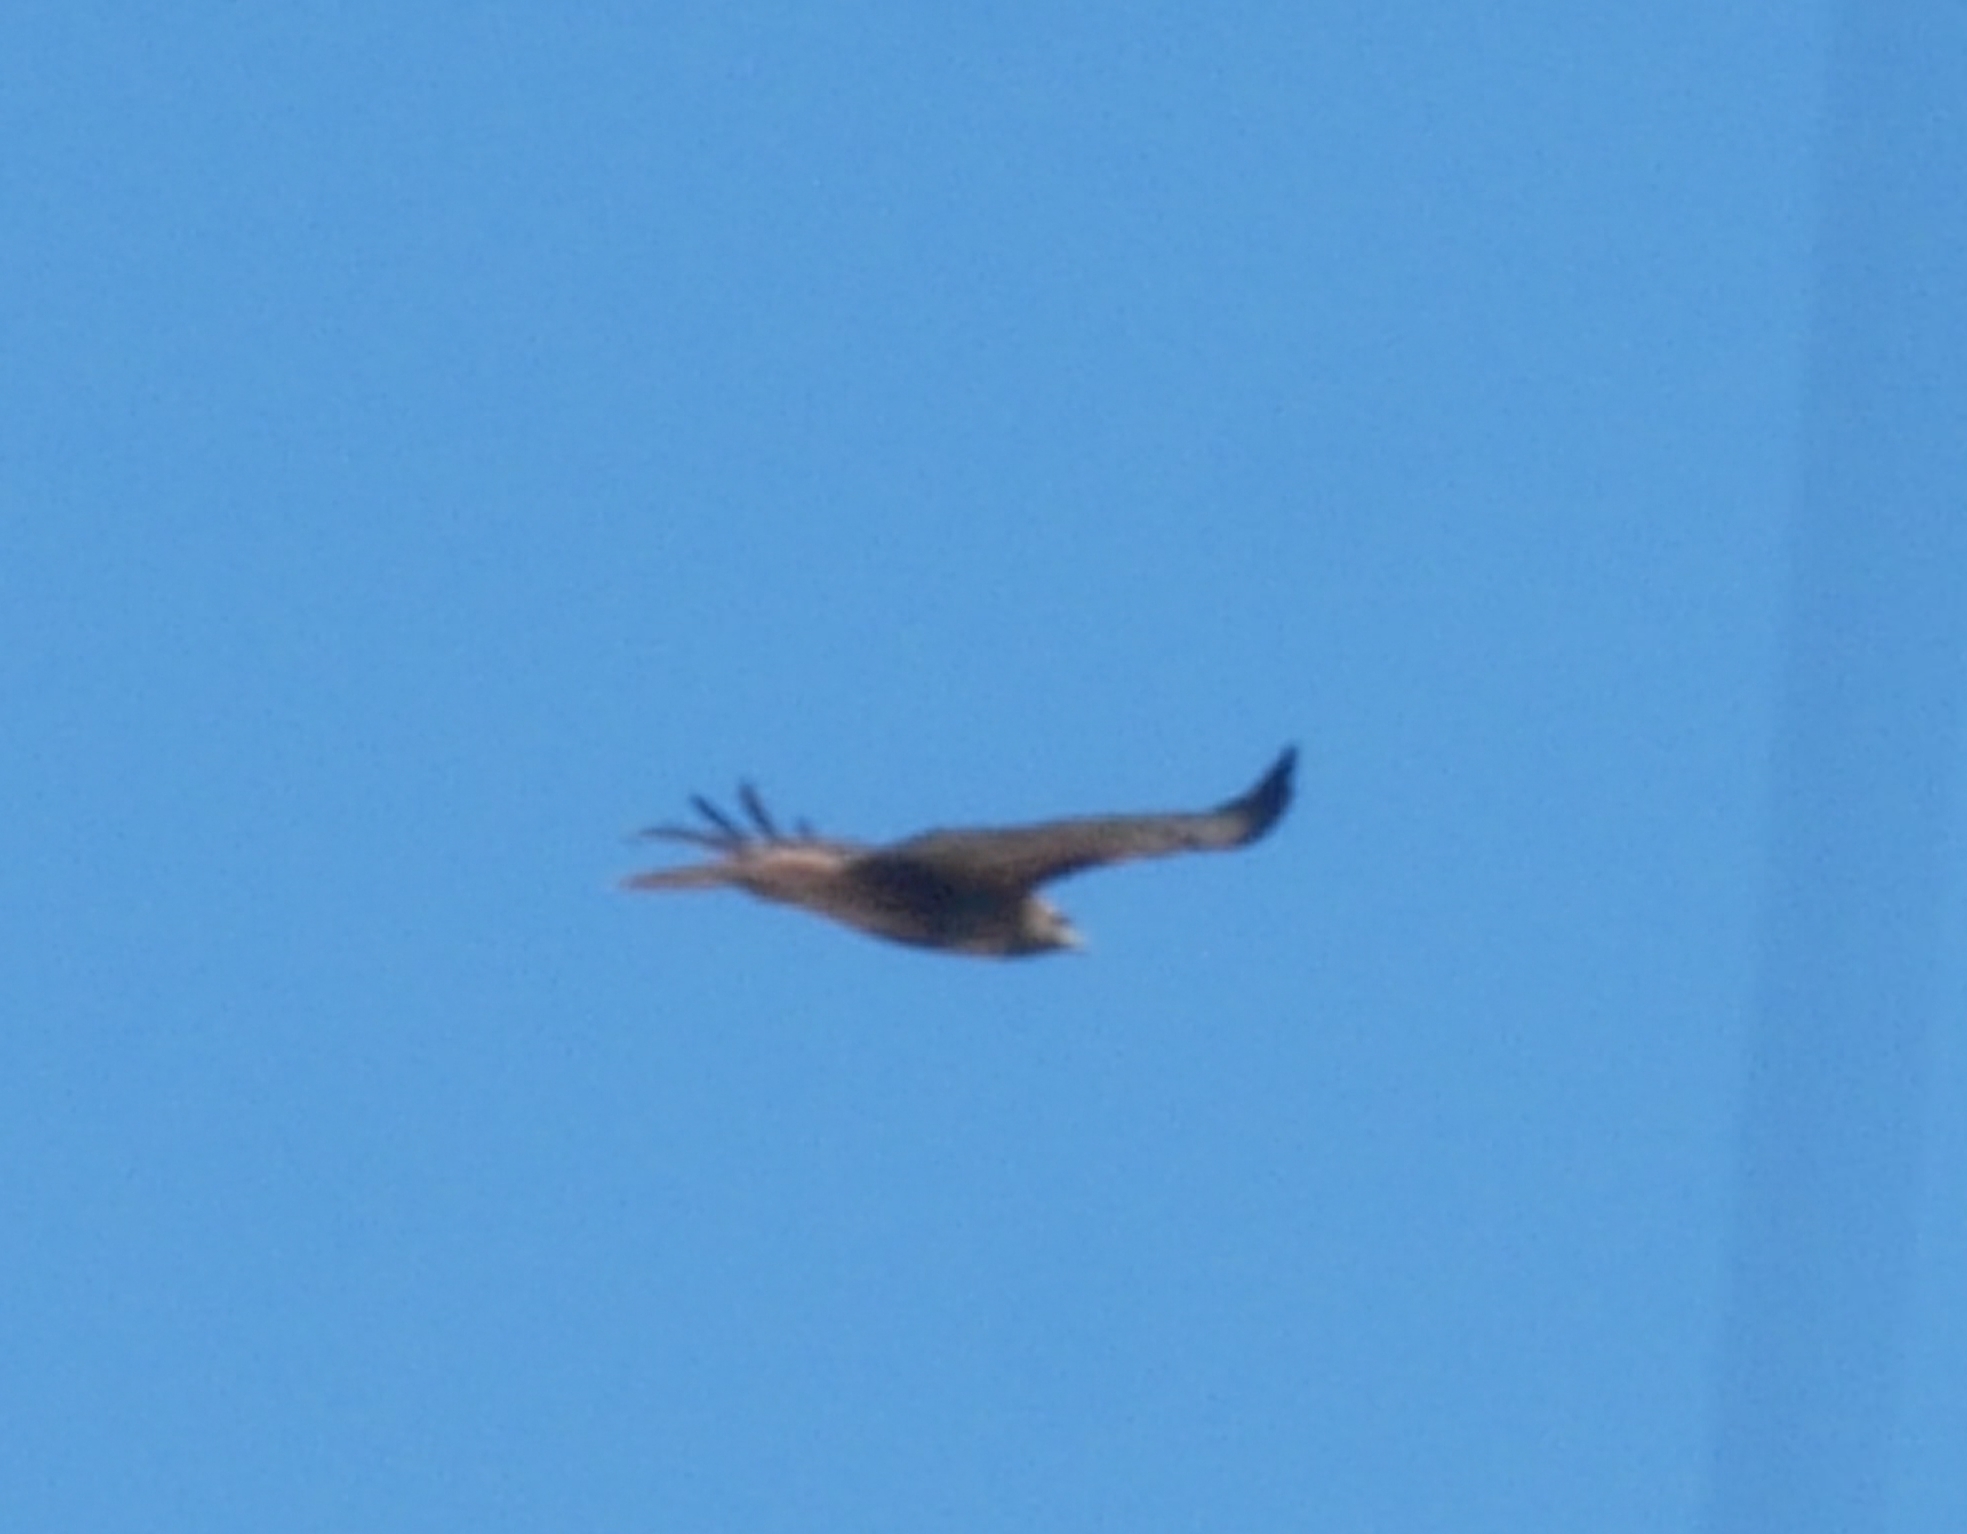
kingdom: Animalia
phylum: Chordata
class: Aves
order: Accipitriformes
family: Accipitridae
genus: Buteo
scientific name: Buteo jamaicensis
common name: Red-tailed hawk
